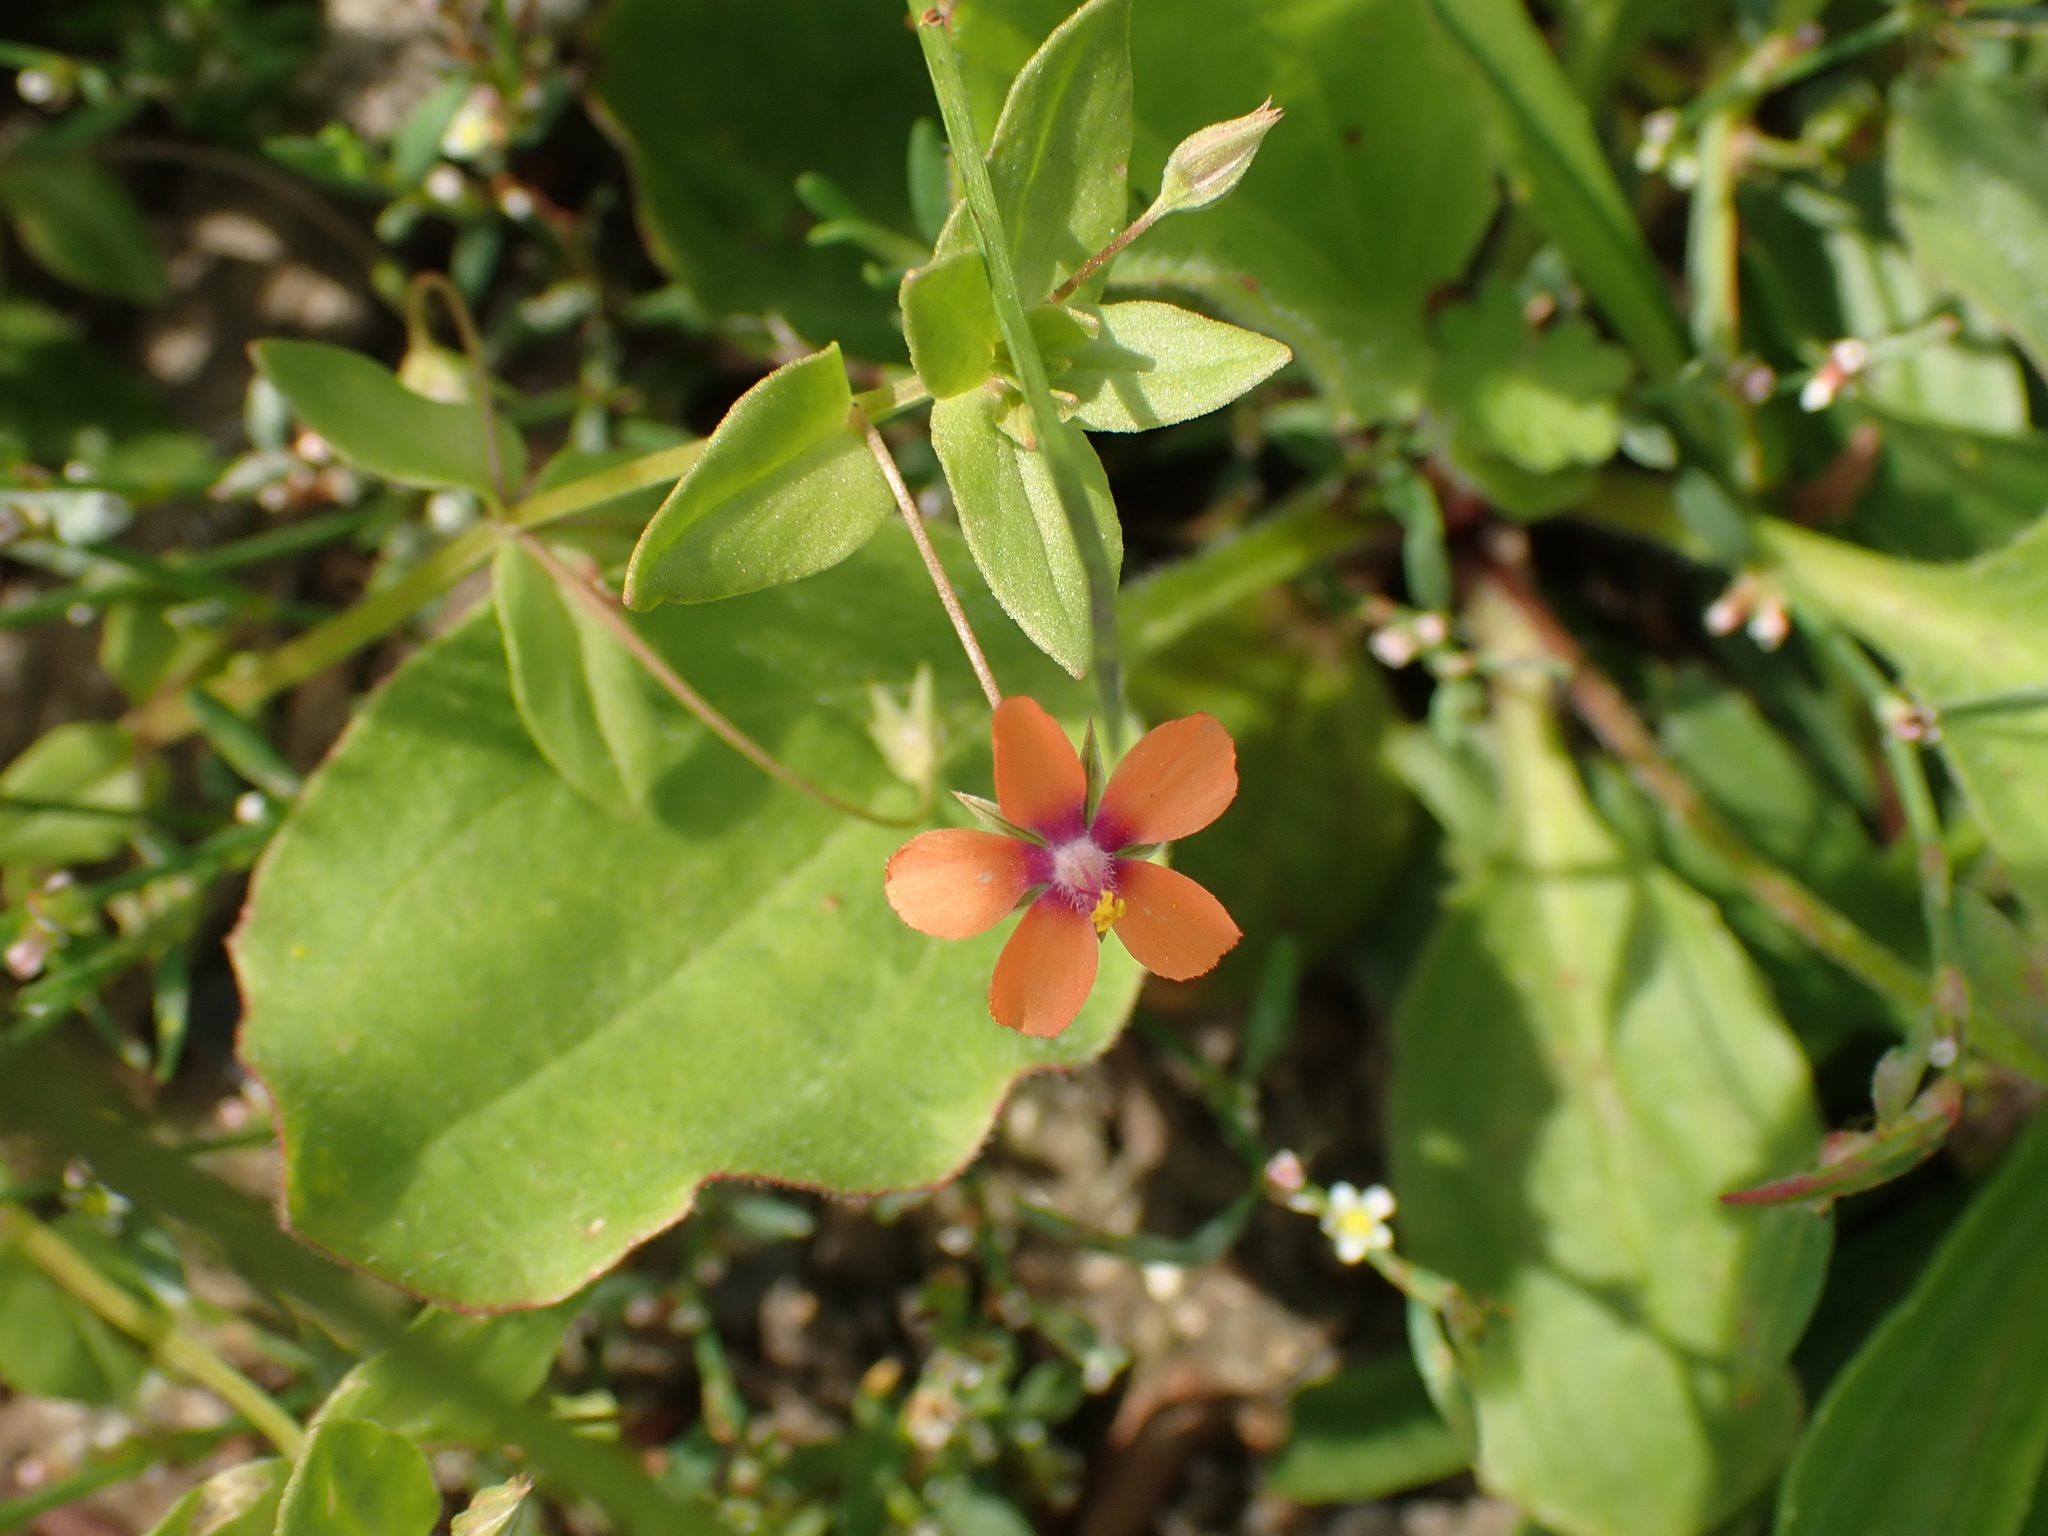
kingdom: Plantae
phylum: Tracheophyta
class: Magnoliopsida
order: Ericales
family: Primulaceae
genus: Lysimachia
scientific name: Lysimachia arvensis
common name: Scarlet pimpernel
